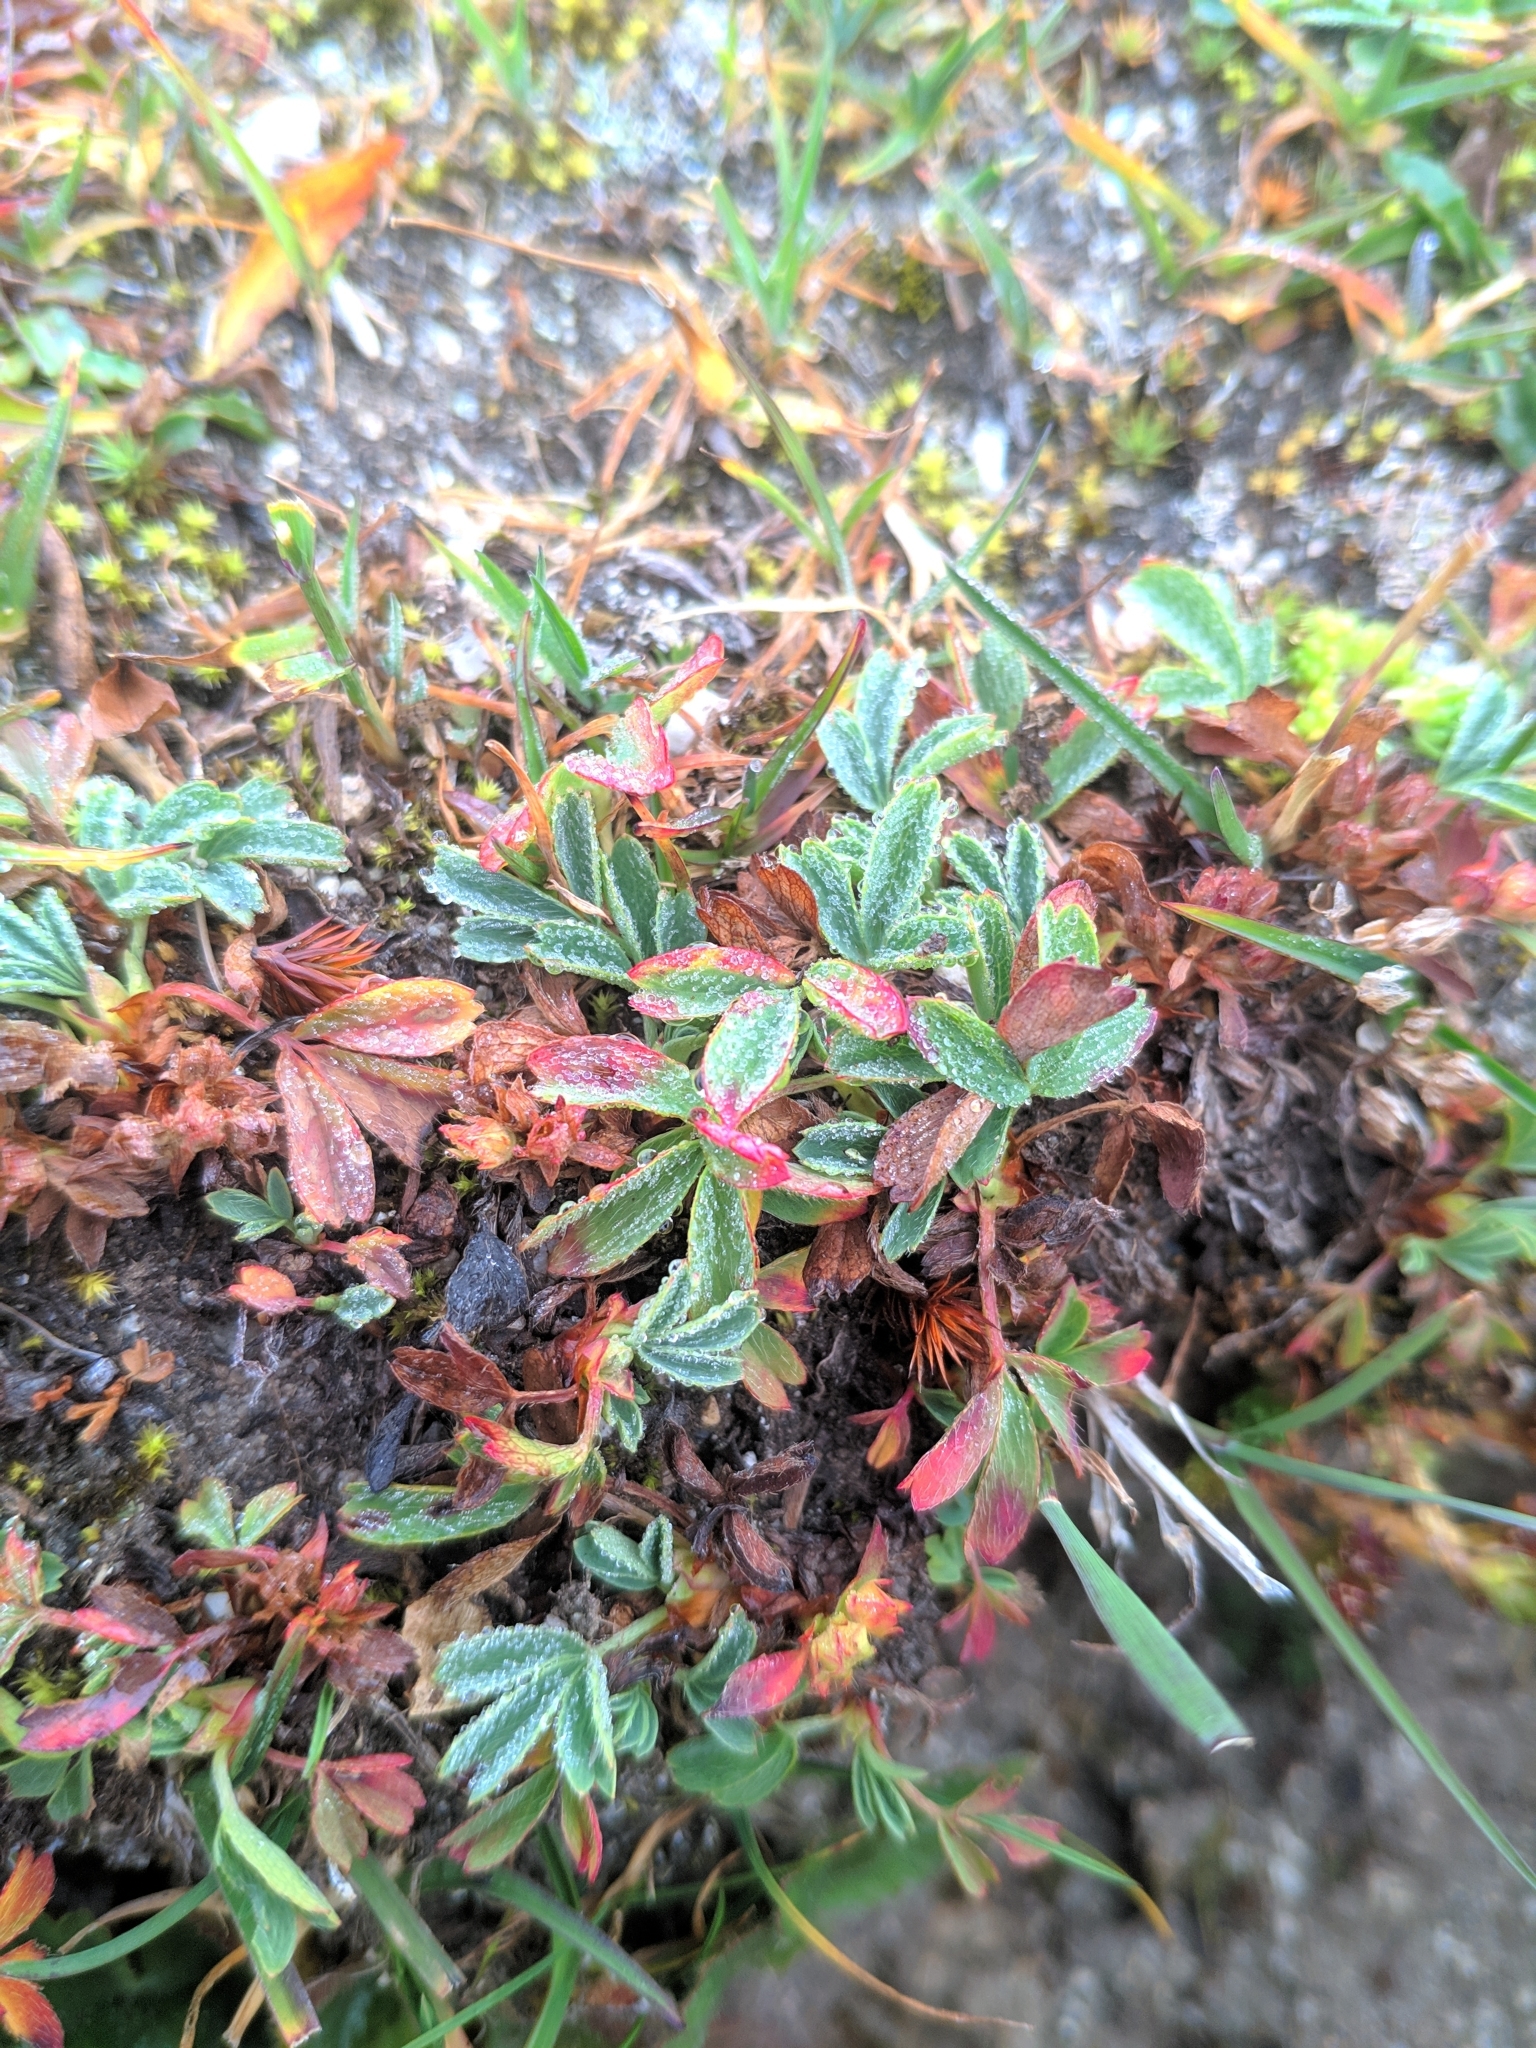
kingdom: Plantae
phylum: Tracheophyta
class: Magnoliopsida
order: Rosales
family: Rosaceae
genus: Sibbaldia
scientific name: Sibbaldia procumbens
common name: Creeping sibbaldia
